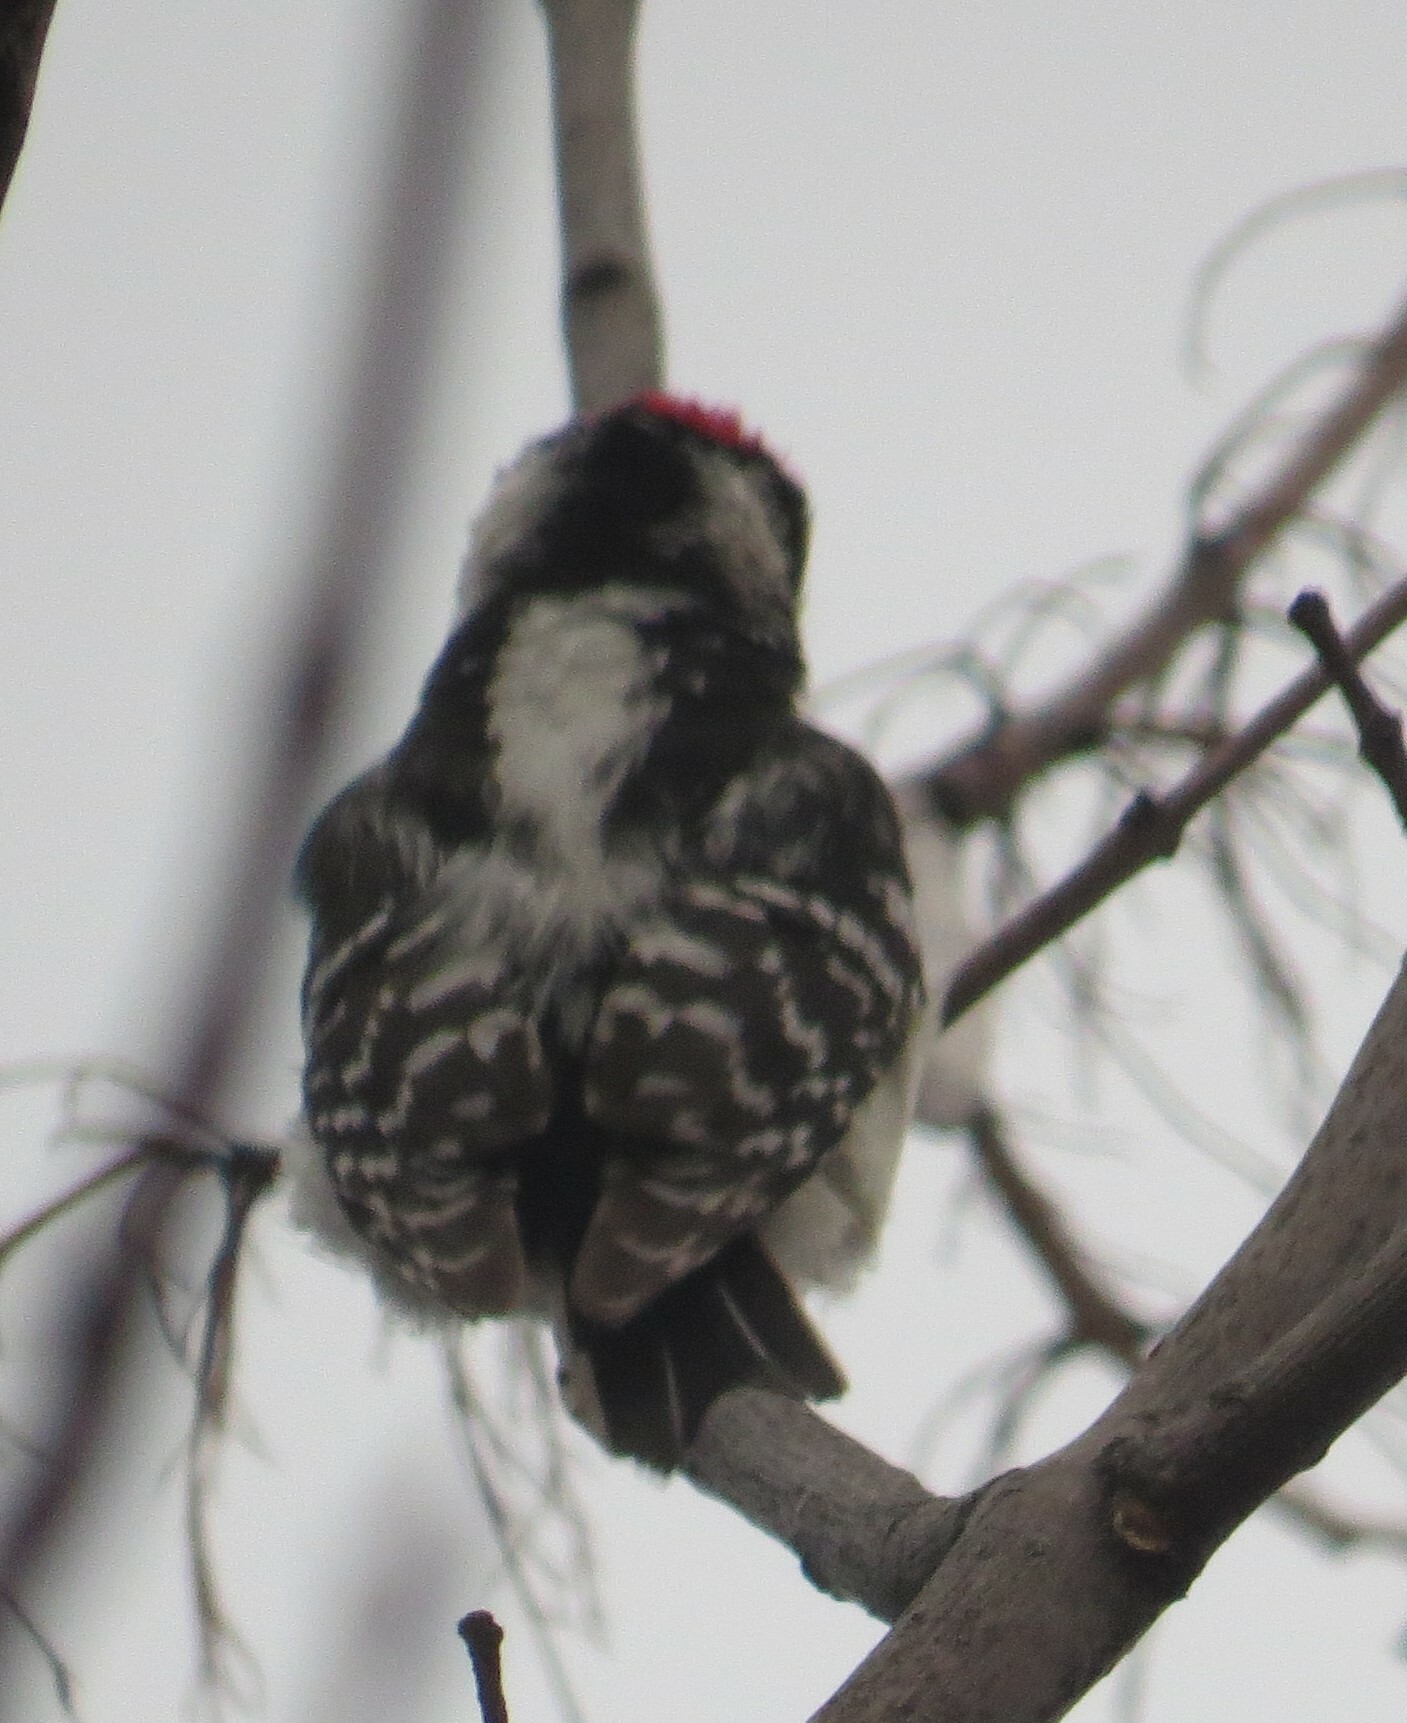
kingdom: Animalia
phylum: Chordata
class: Aves
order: Piciformes
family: Picidae
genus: Dryobates
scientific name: Dryobates pubescens
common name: Downy woodpecker
